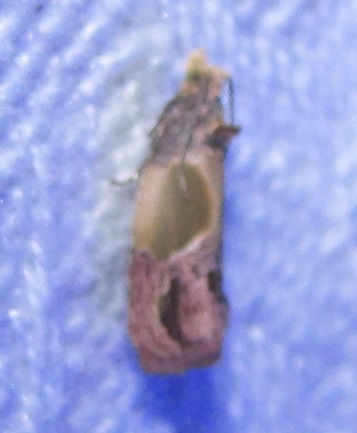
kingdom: Animalia
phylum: Arthropoda
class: Insecta
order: Lepidoptera
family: Tortricidae
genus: Eumarozia
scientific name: Eumarozia malachitana
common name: Sculptured moth
